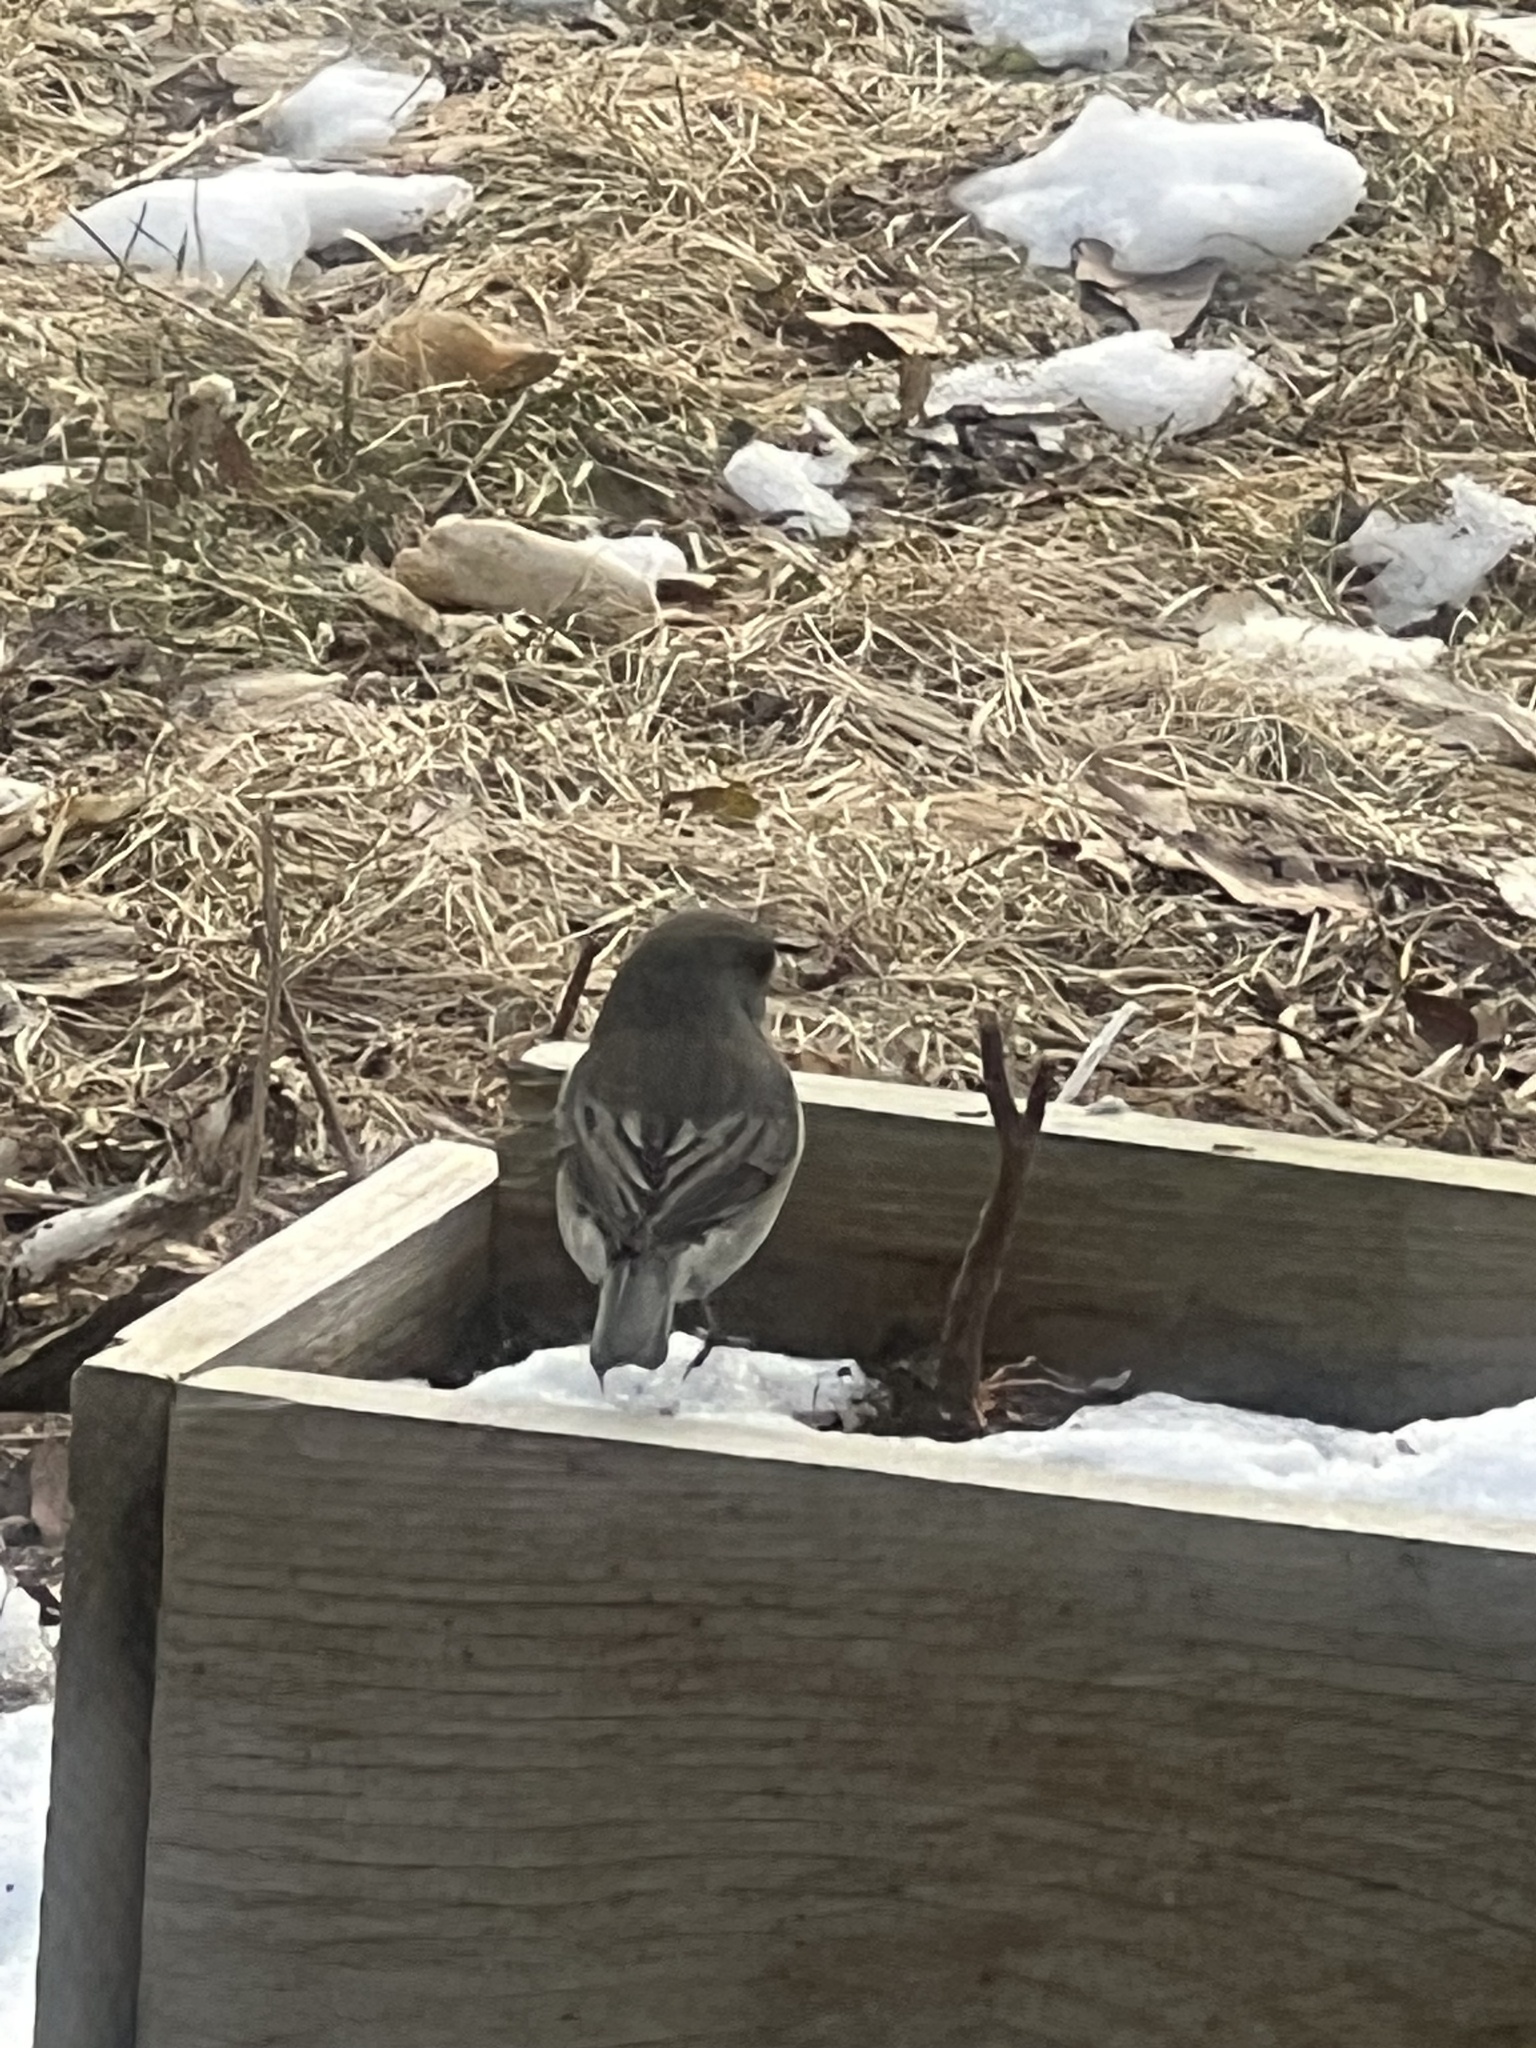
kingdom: Animalia
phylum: Chordata
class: Aves
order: Passeriformes
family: Passerellidae
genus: Junco
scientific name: Junco hyemalis
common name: Dark-eyed junco
